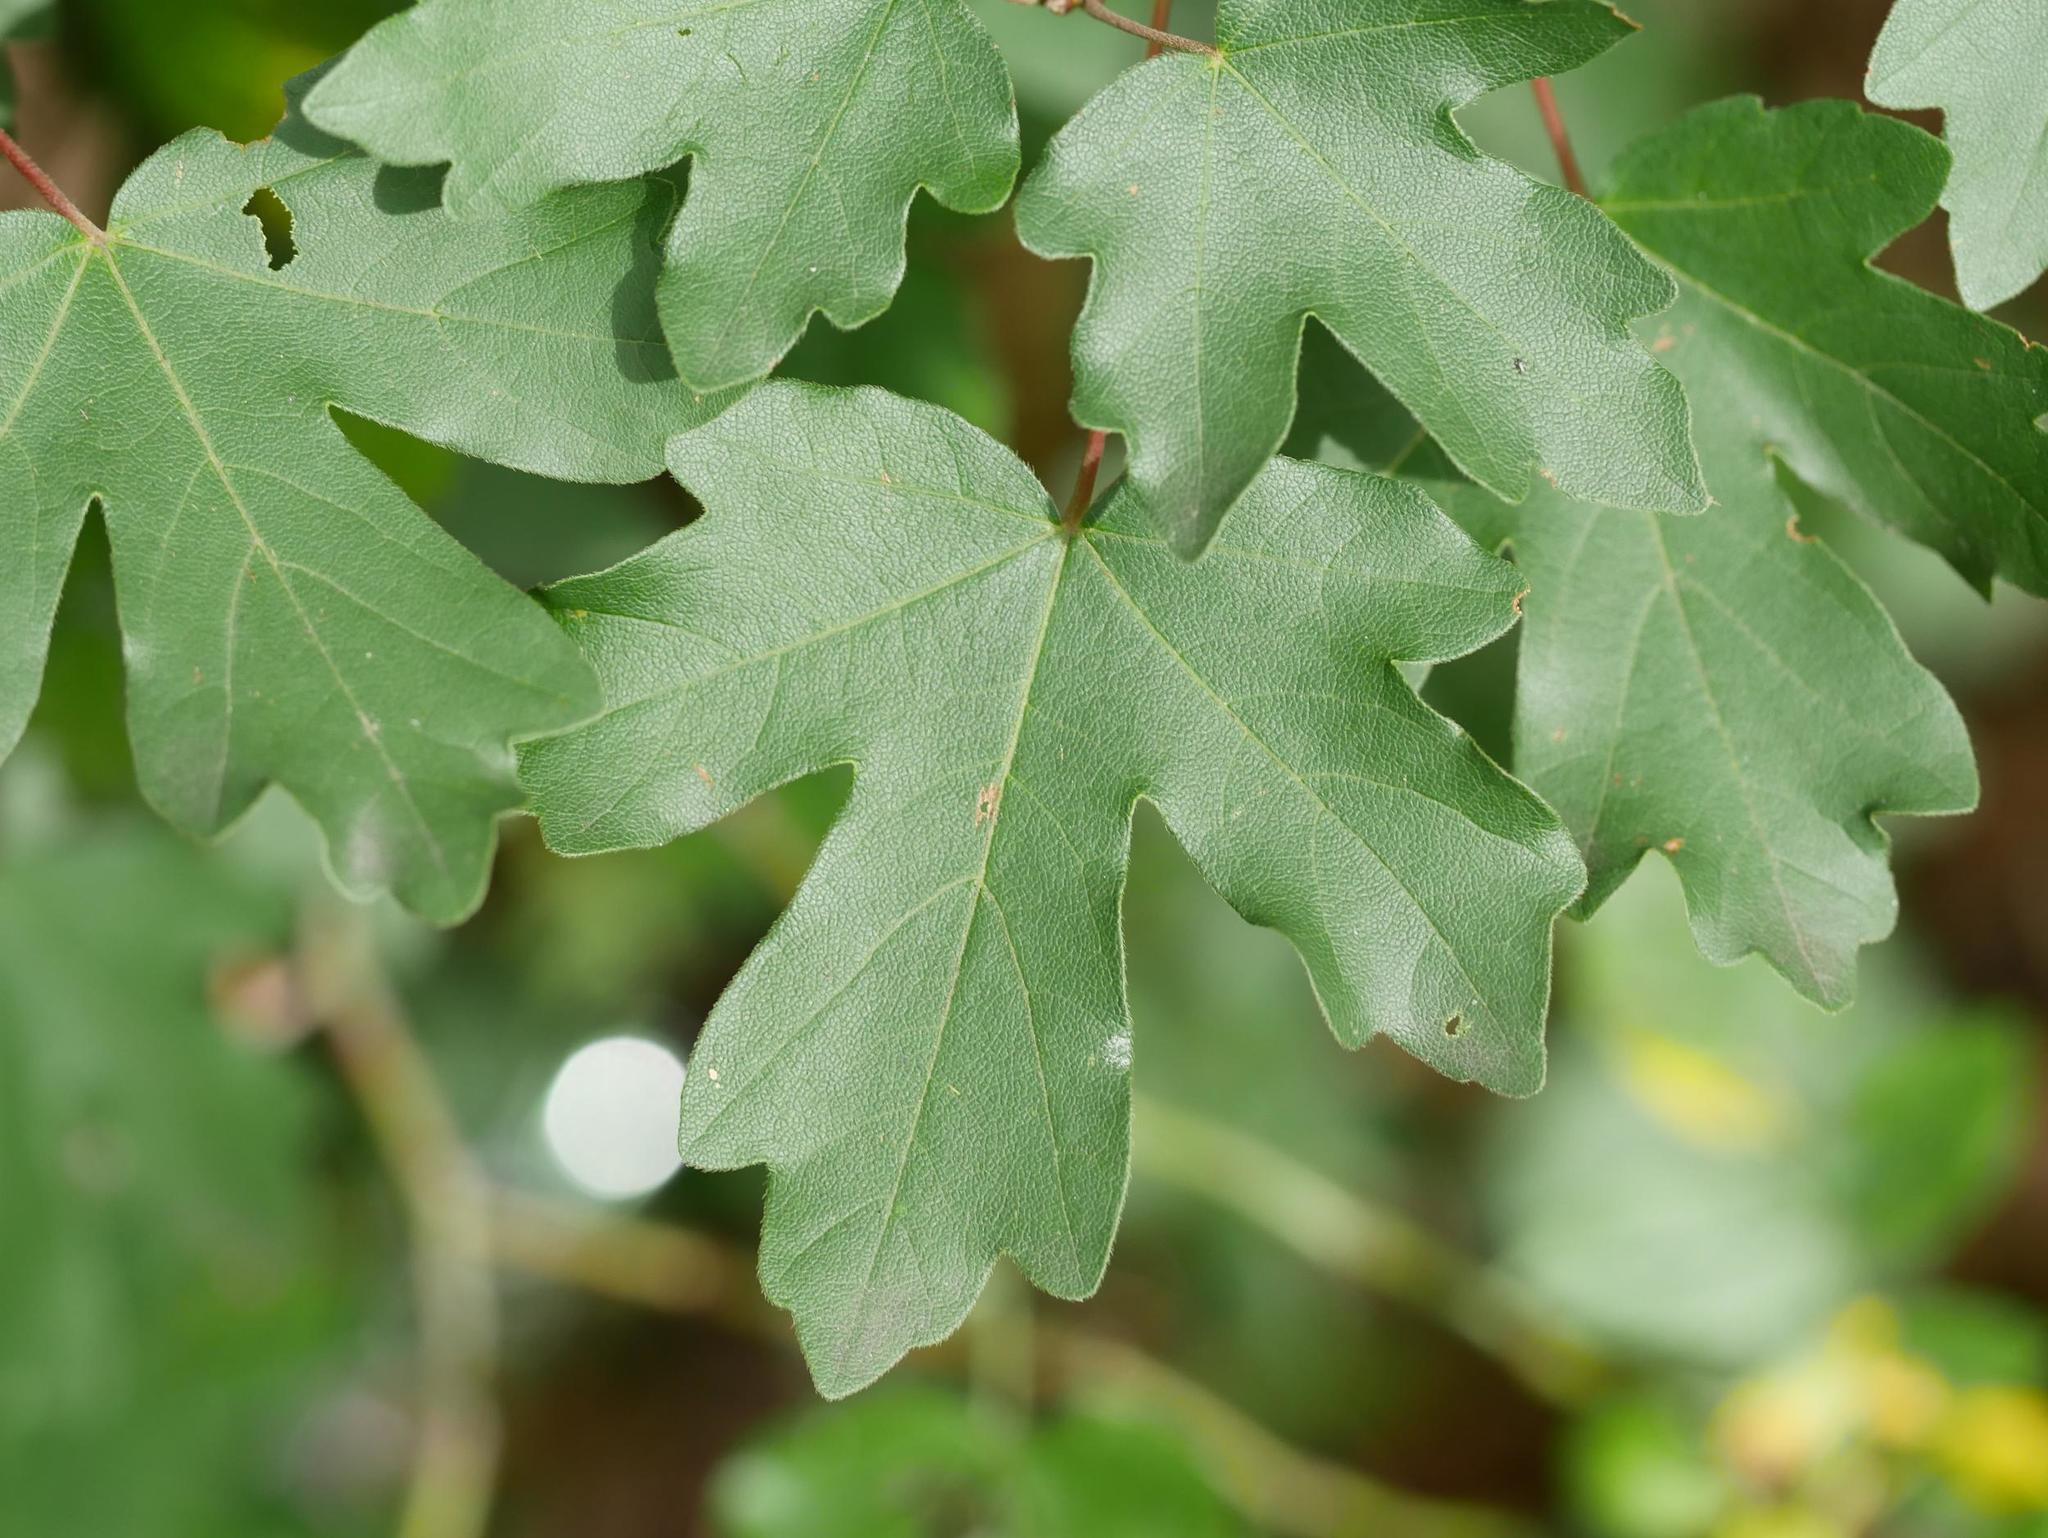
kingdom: Plantae
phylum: Tracheophyta
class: Magnoliopsida
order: Sapindales
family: Sapindaceae
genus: Acer
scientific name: Acer campestre
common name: Field maple
